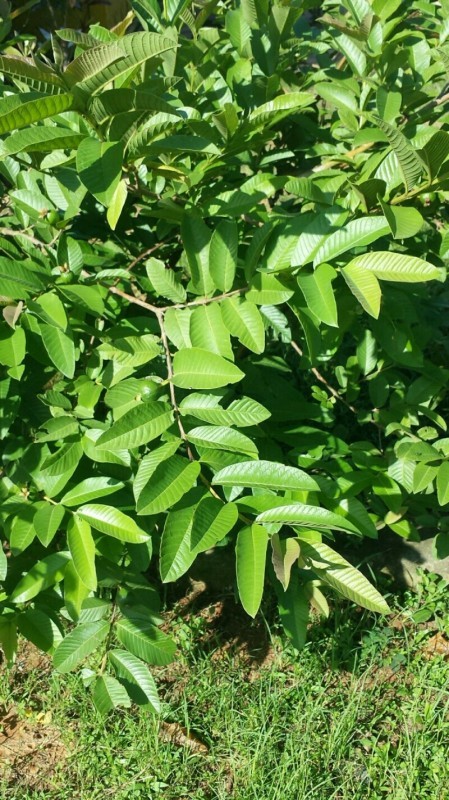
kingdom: Plantae
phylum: Tracheophyta
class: Magnoliopsida
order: Myrtales
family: Myrtaceae
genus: Psidium
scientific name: Psidium guajava
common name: Guava
